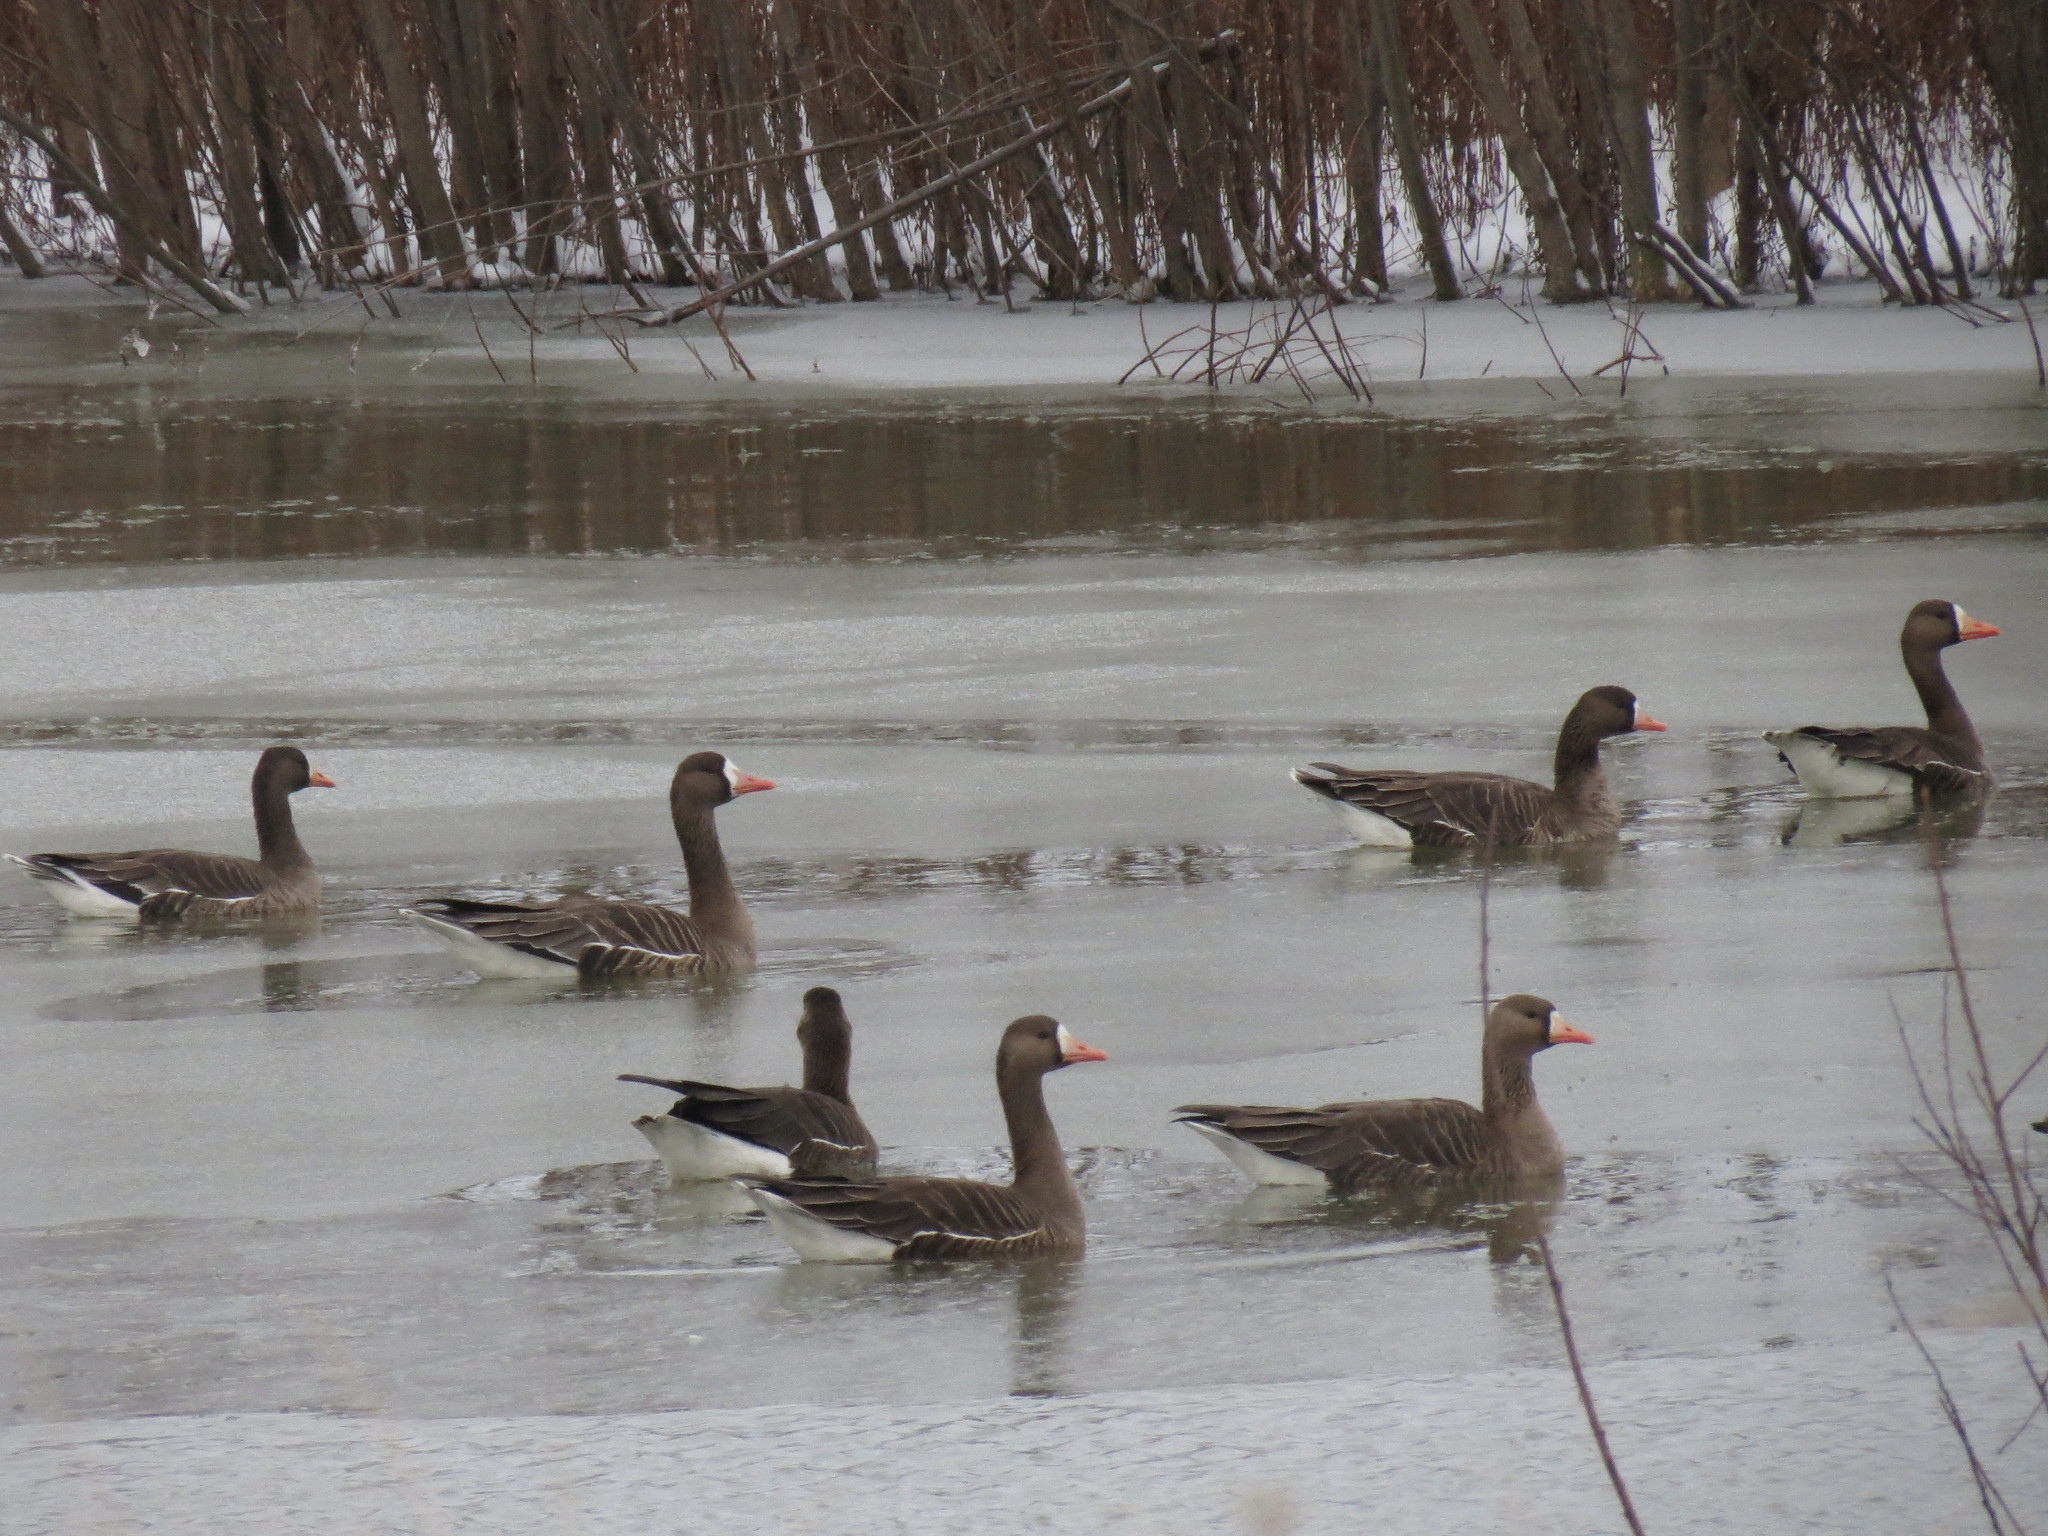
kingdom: Animalia
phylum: Chordata
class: Aves
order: Anseriformes
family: Anatidae
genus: Anser
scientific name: Anser albifrons
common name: Greater white-fronted goose
